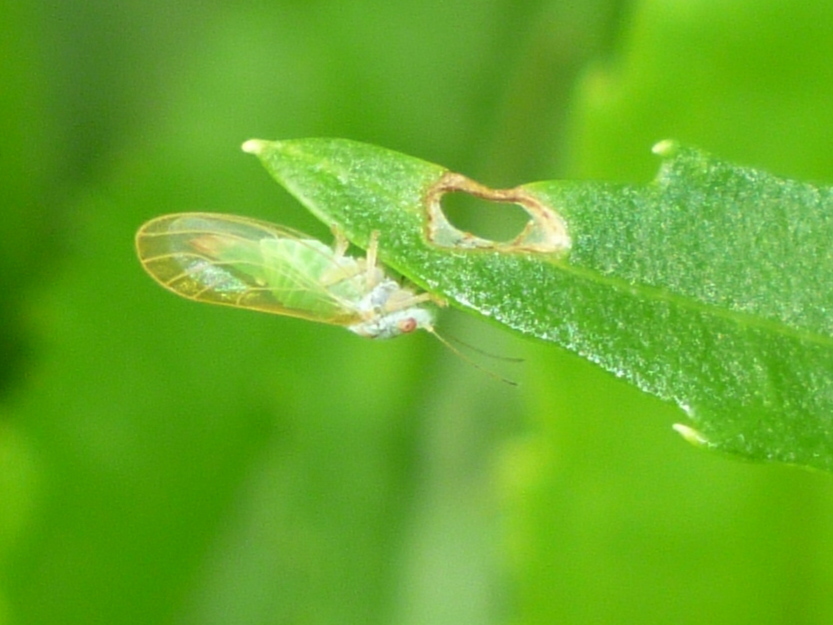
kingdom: Animalia
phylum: Arthropoda
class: Insecta
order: Hemiptera
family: Psyllidae
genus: Psylla
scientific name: Psylla buxi
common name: Boxwood psyllid
